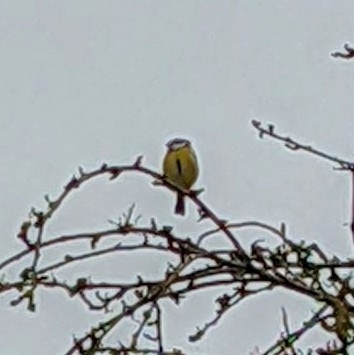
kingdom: Animalia
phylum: Chordata
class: Aves
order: Passeriformes
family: Paridae
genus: Parus
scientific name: Parus major
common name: Great tit
